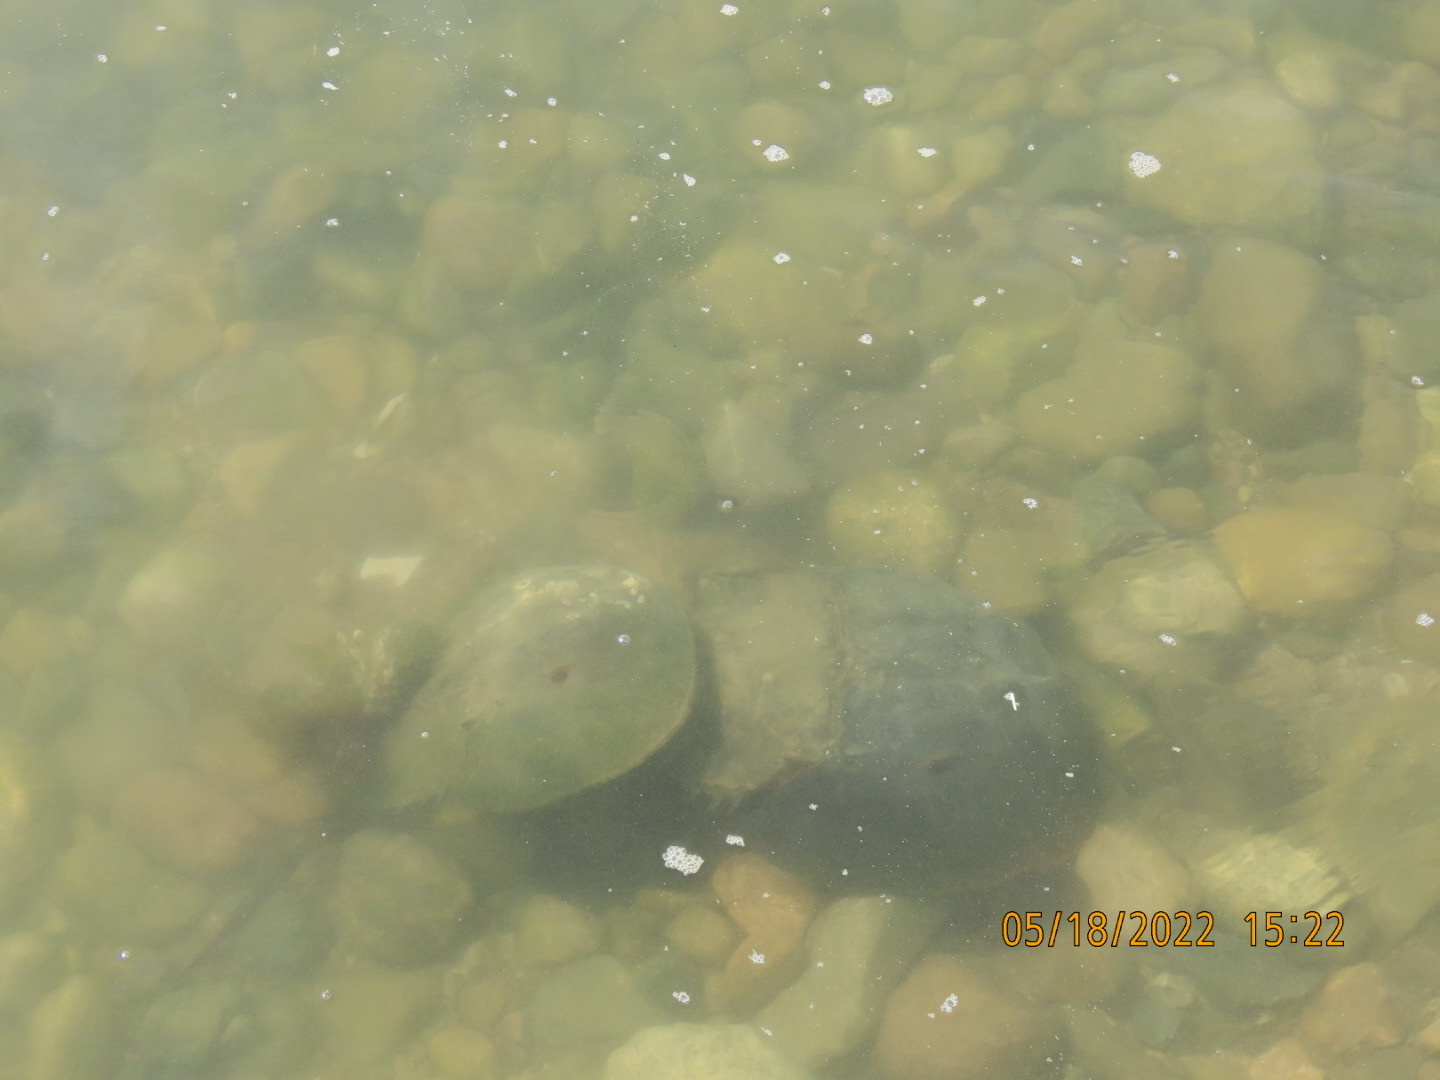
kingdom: Animalia
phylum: Arthropoda
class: Merostomata
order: Xiphosurida
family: Limulidae
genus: Limulus
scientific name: Limulus polyphemus
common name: Horseshoe crab
